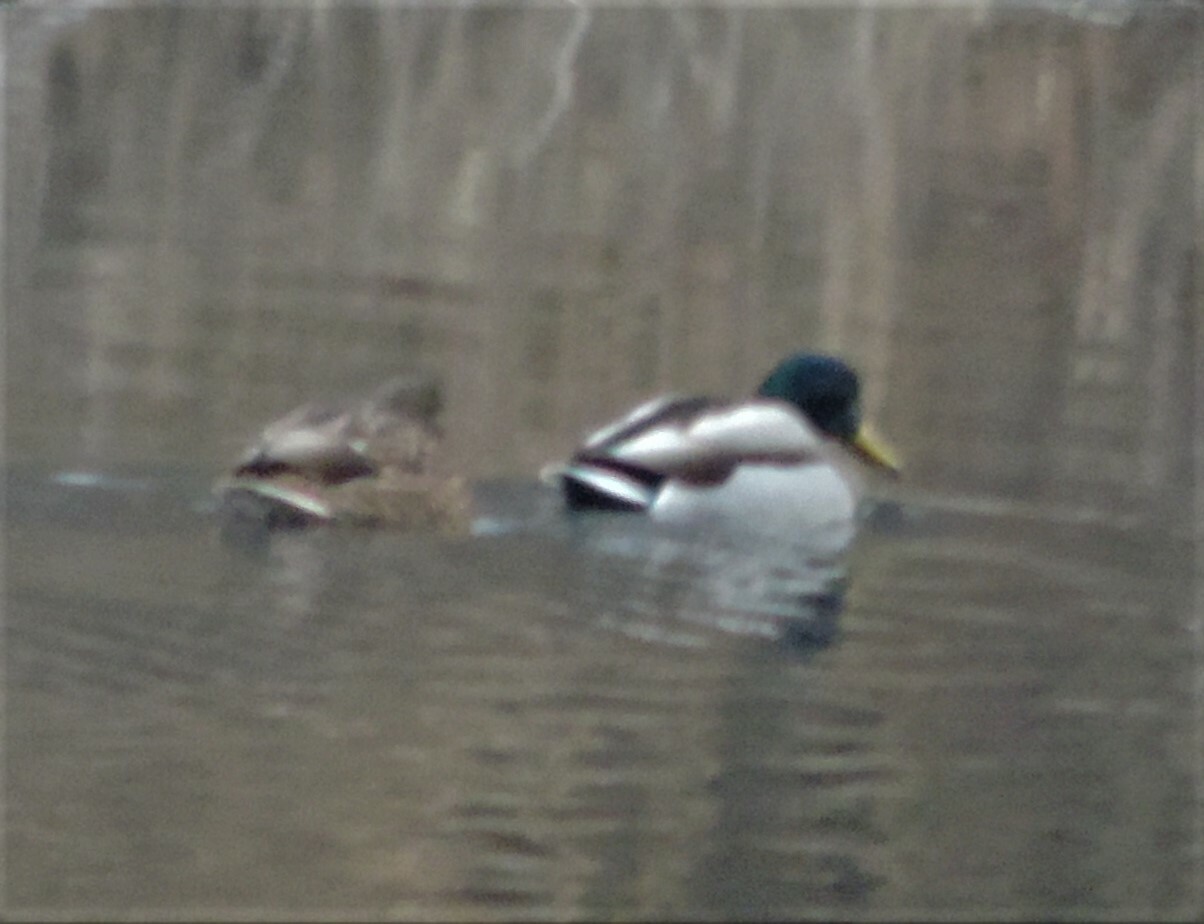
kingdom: Animalia
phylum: Chordata
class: Aves
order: Anseriformes
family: Anatidae
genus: Anas
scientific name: Anas platyrhynchos
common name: Mallard
